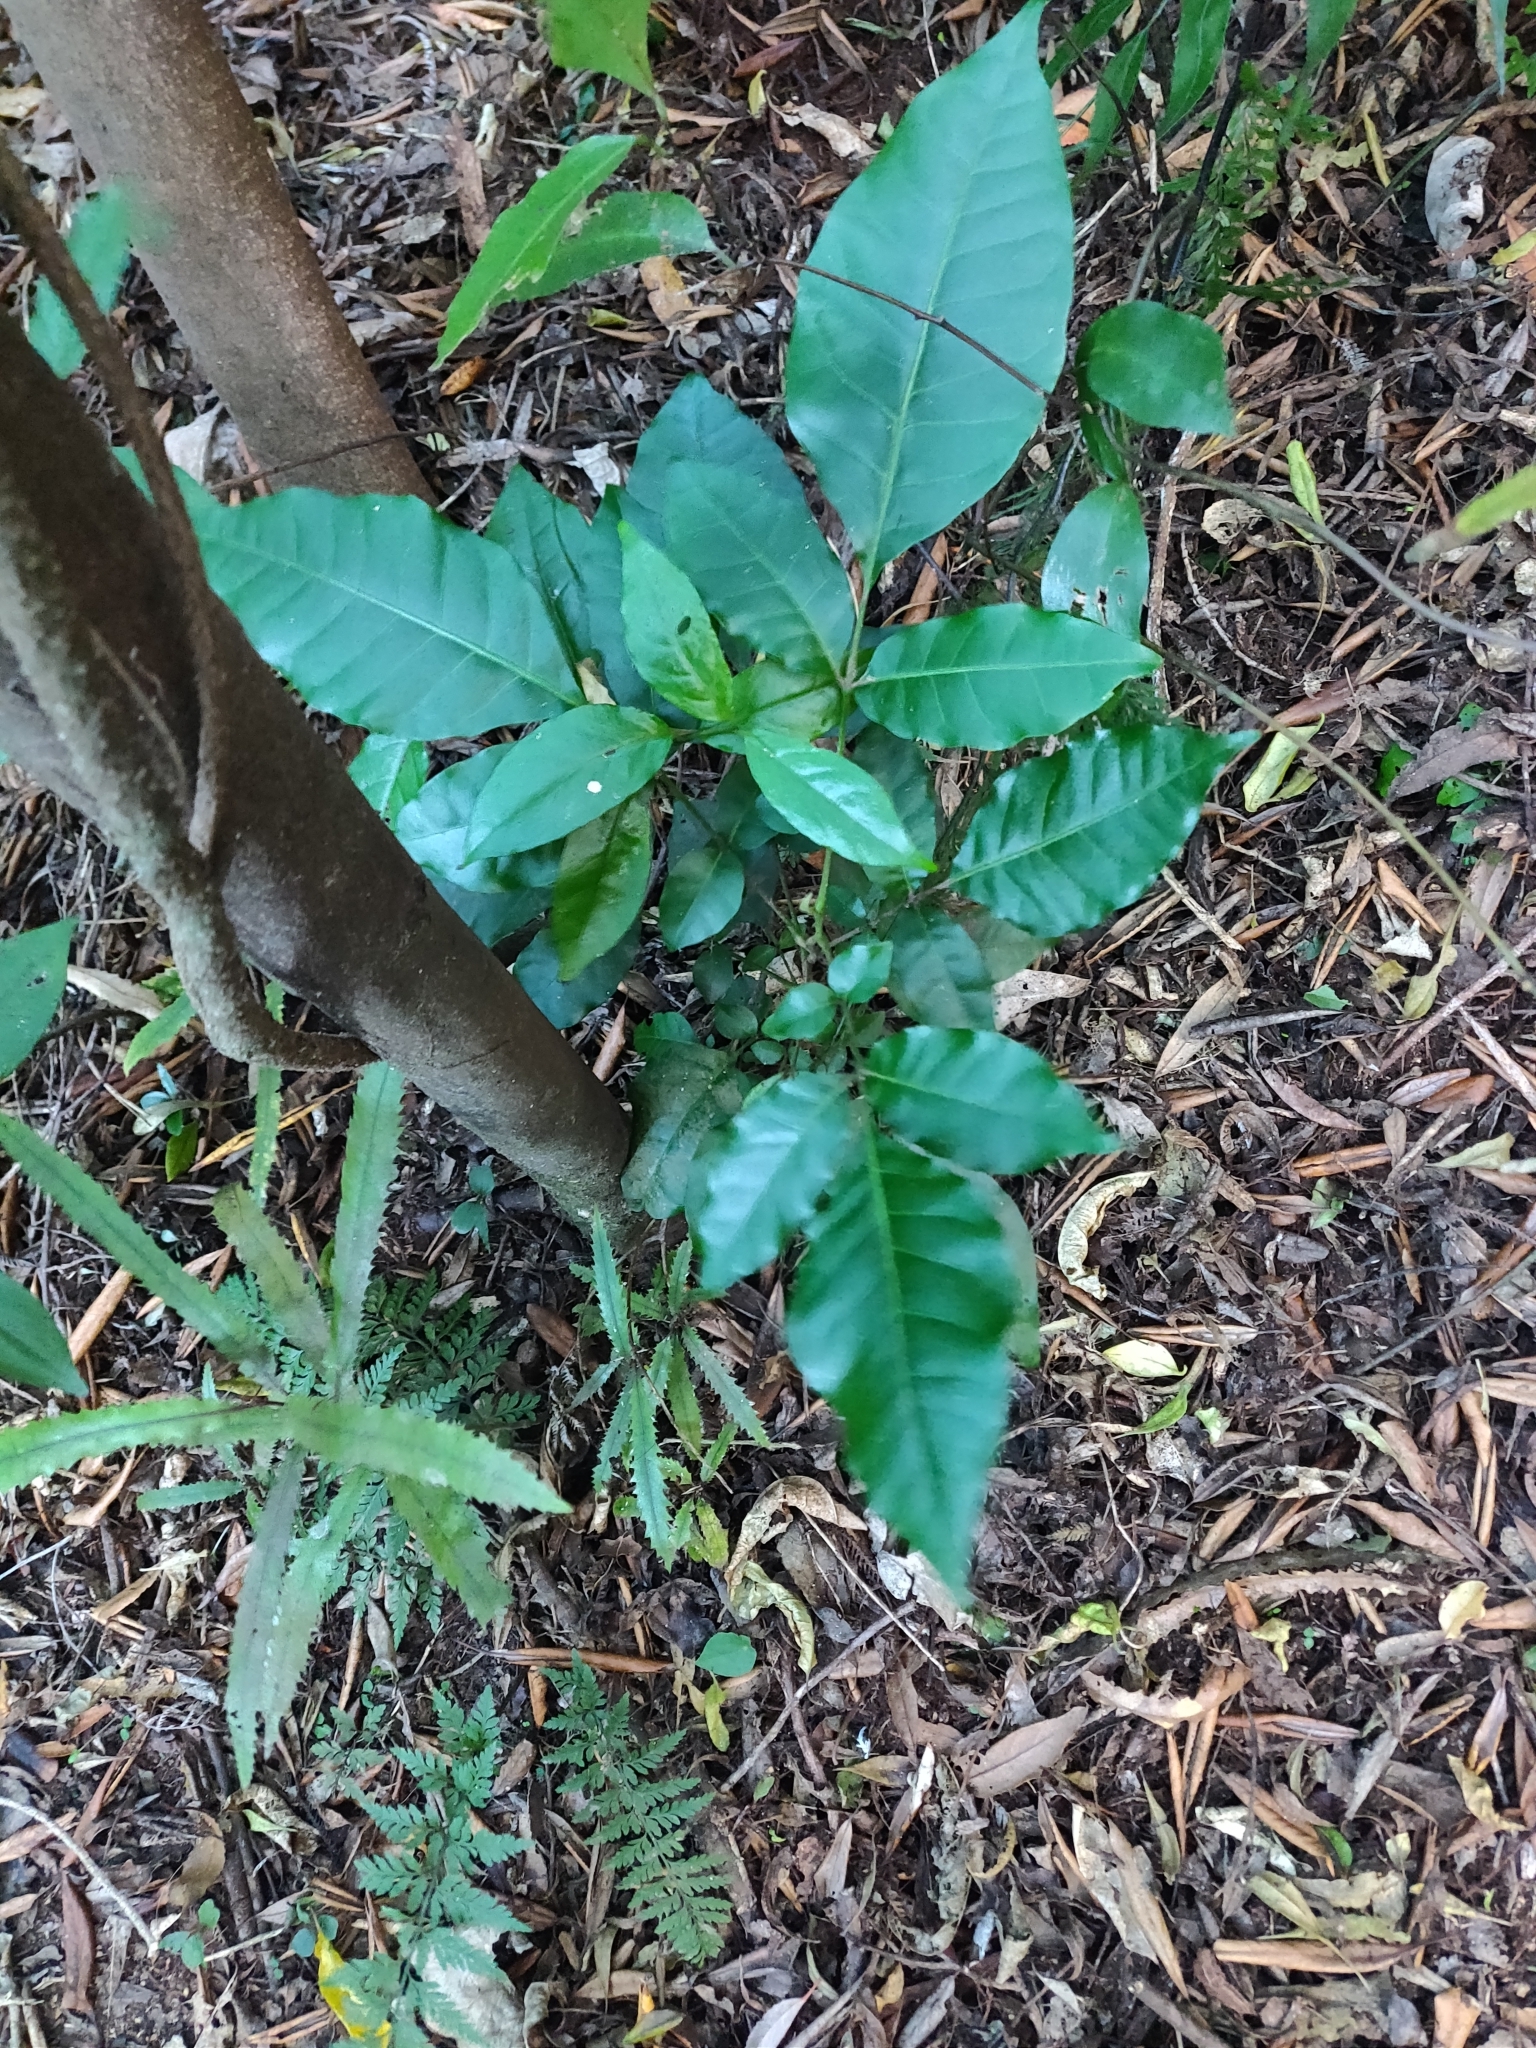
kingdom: Plantae
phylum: Tracheophyta
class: Magnoliopsida
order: Sapindales
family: Meliaceae
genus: Didymocheton
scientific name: Didymocheton spectabilis
